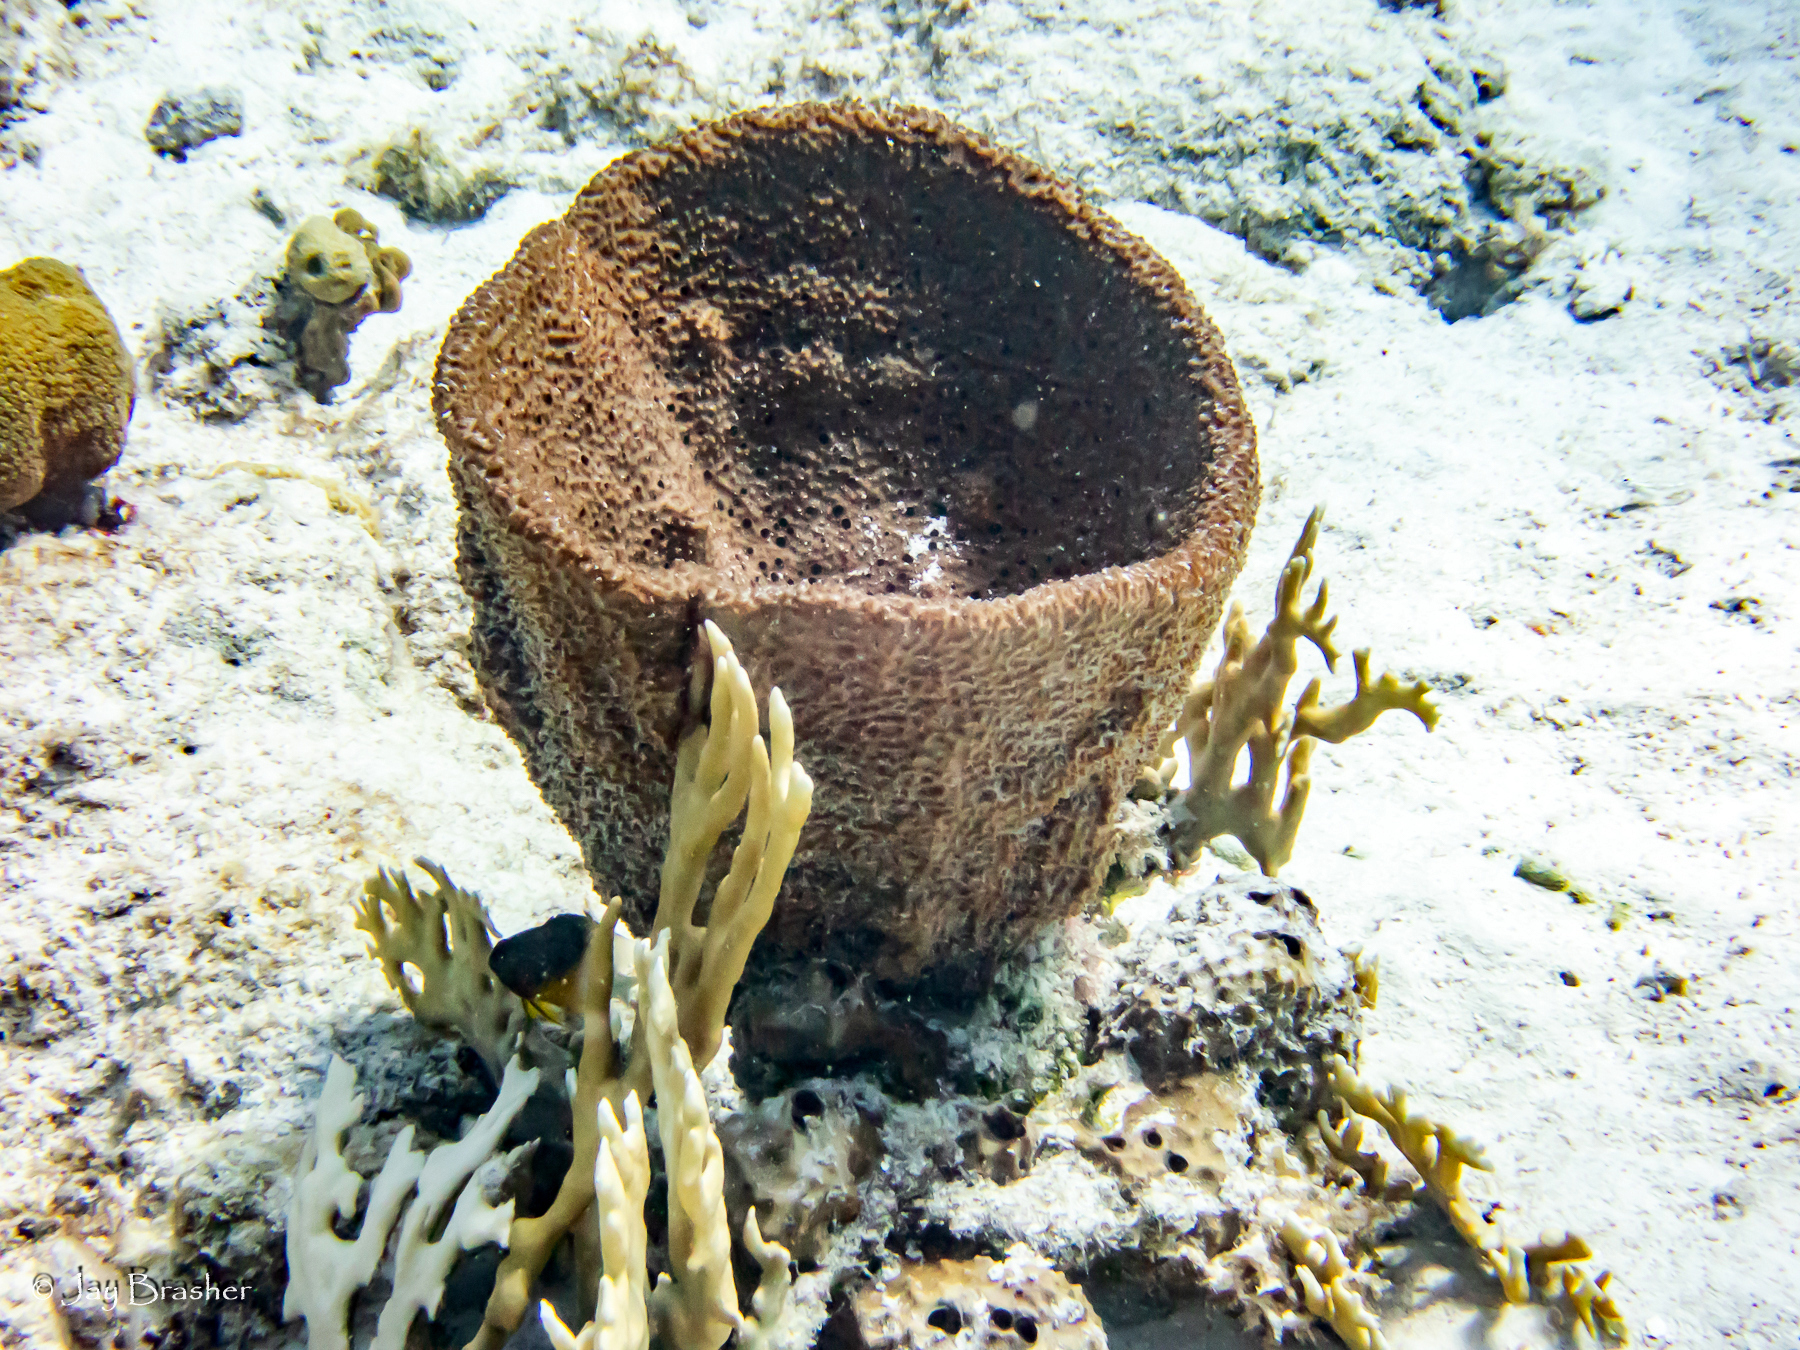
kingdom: Animalia
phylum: Porifera
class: Demospongiae
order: Dictyoceratida
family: Irciniidae
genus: Ircinia
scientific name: Ircinia campana
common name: Vase sponge
